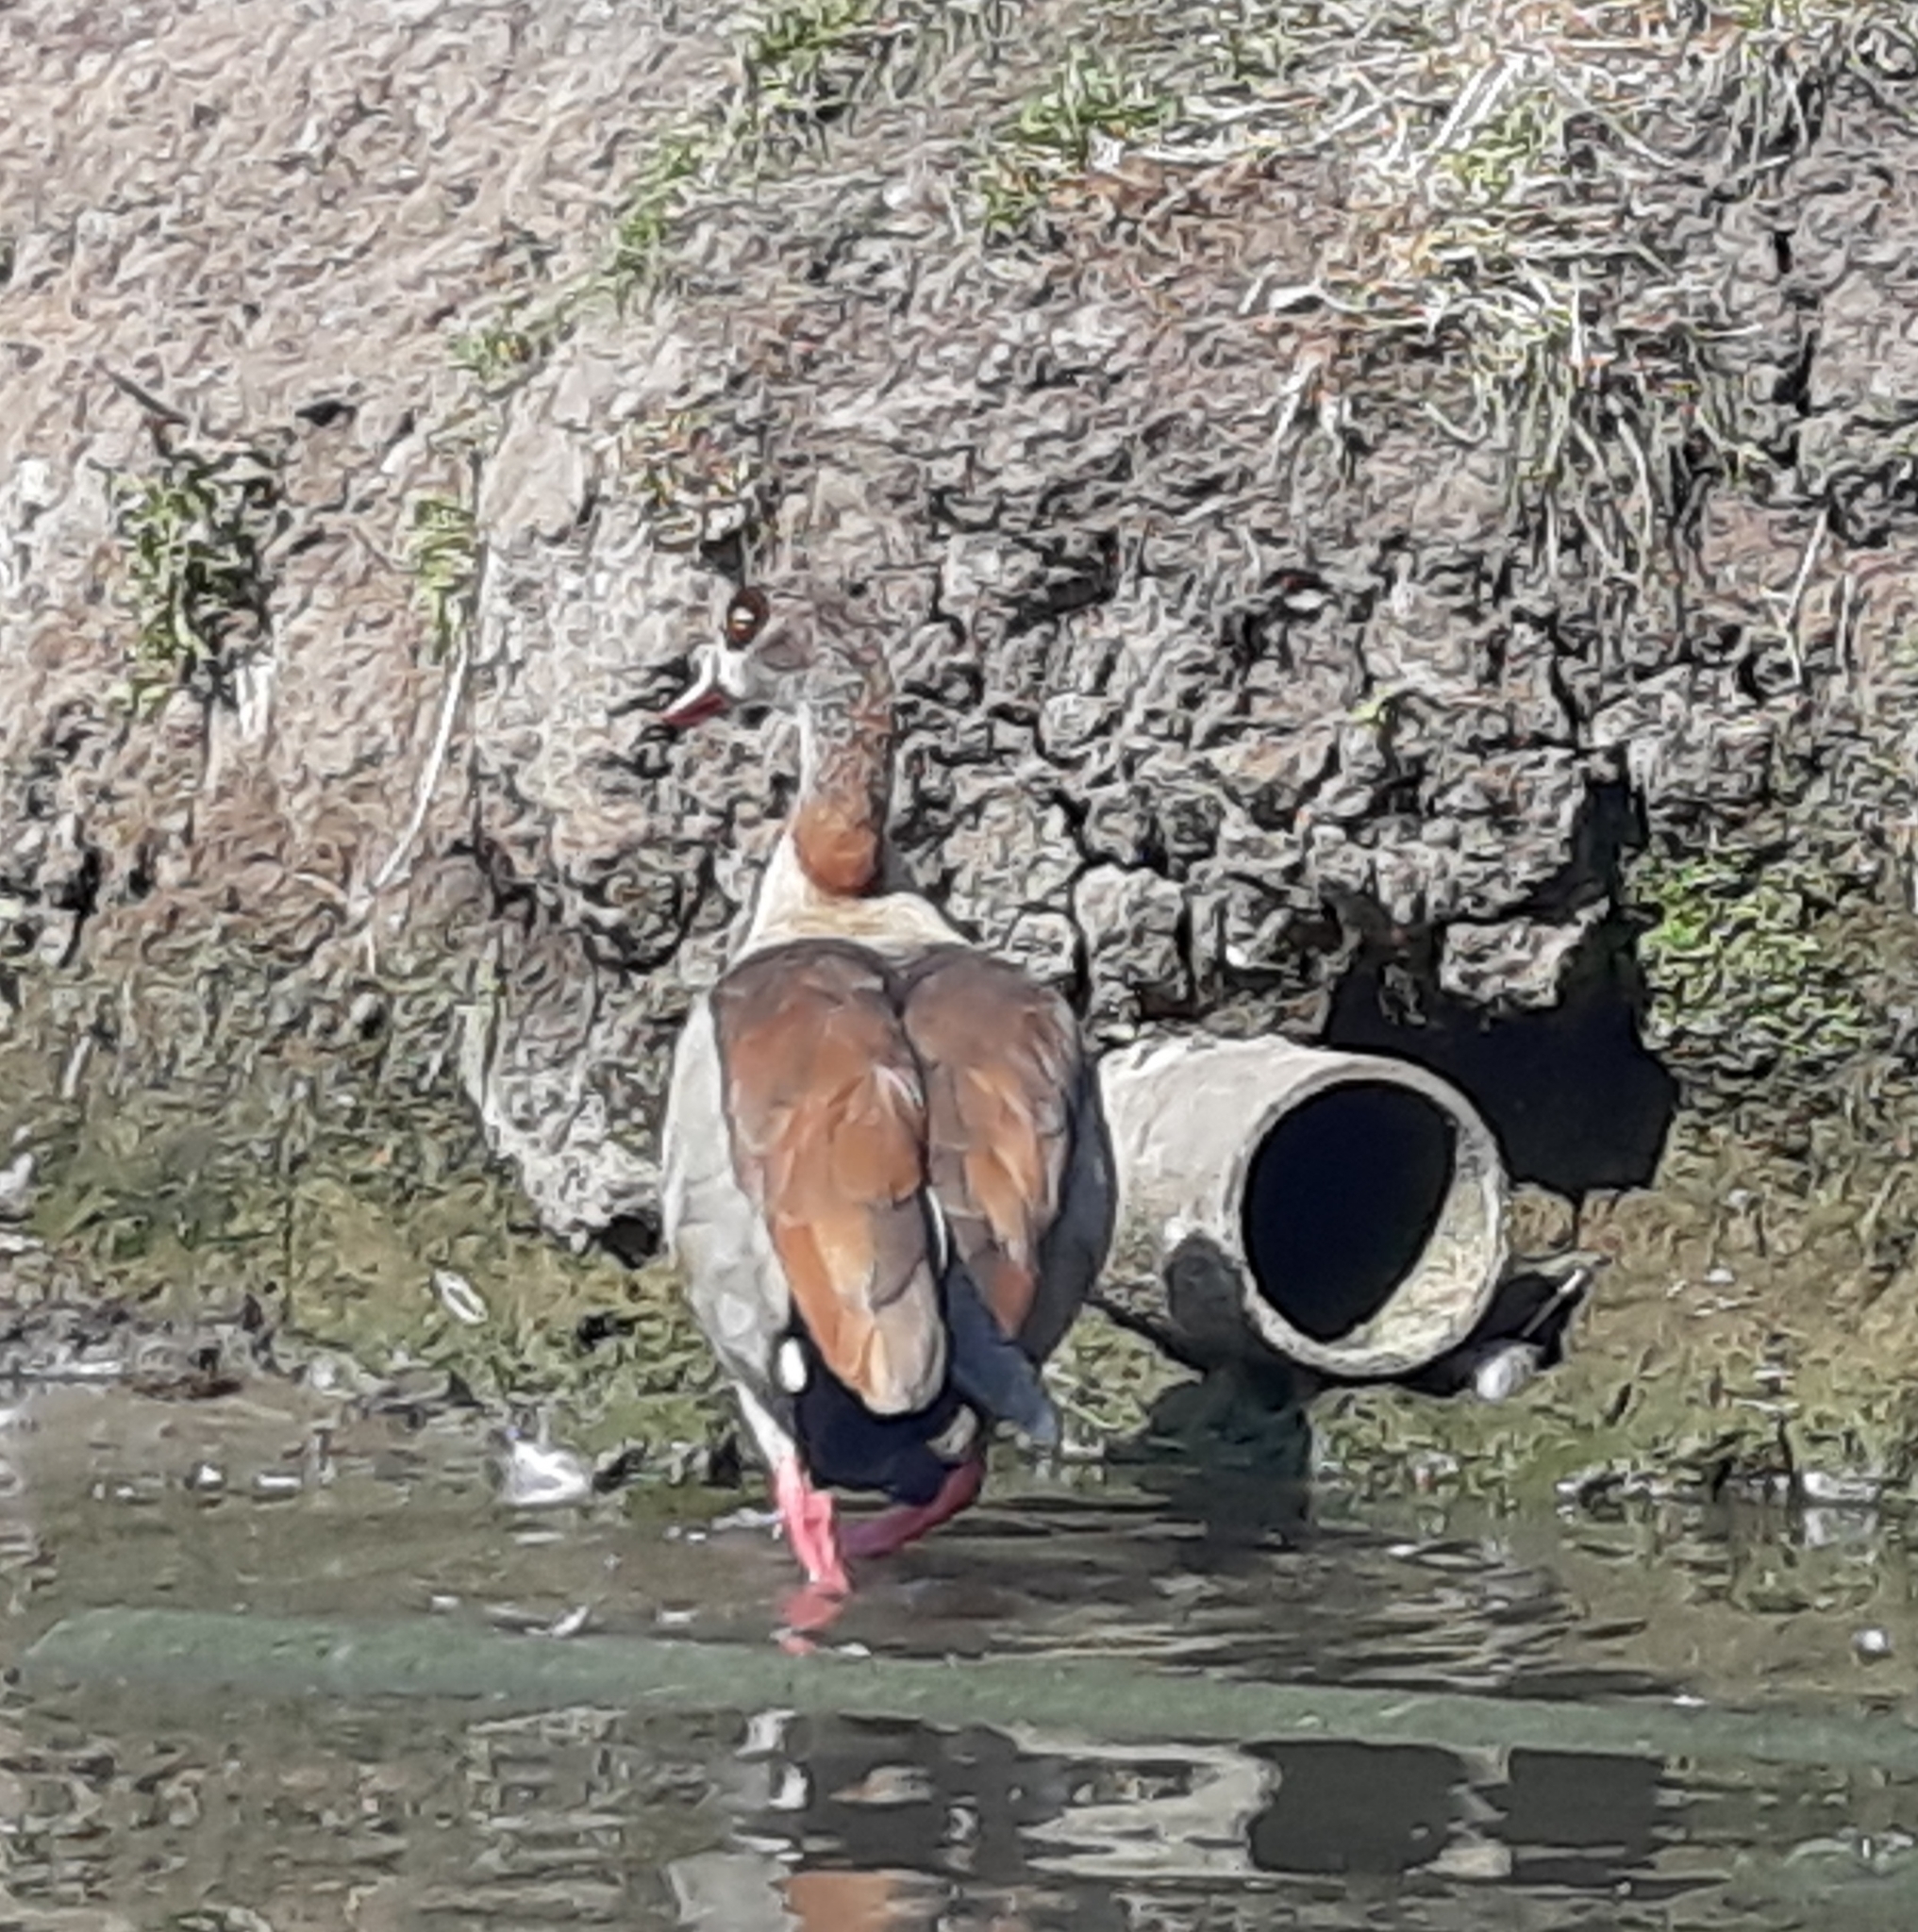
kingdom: Animalia
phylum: Chordata
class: Aves
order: Anseriformes
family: Anatidae
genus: Alopochen
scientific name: Alopochen aegyptiaca
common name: Egyptian goose
